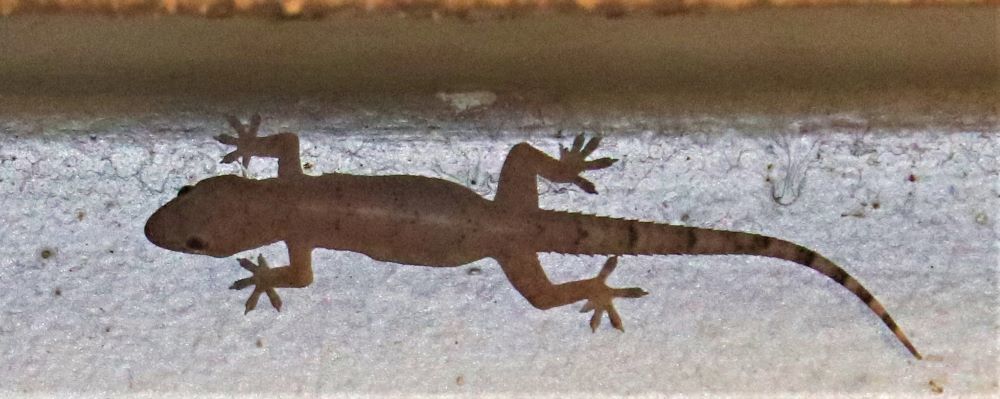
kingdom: Animalia
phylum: Chordata
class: Squamata
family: Gekkonidae
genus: Hemidactylus
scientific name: Hemidactylus mabouia
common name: House gecko
